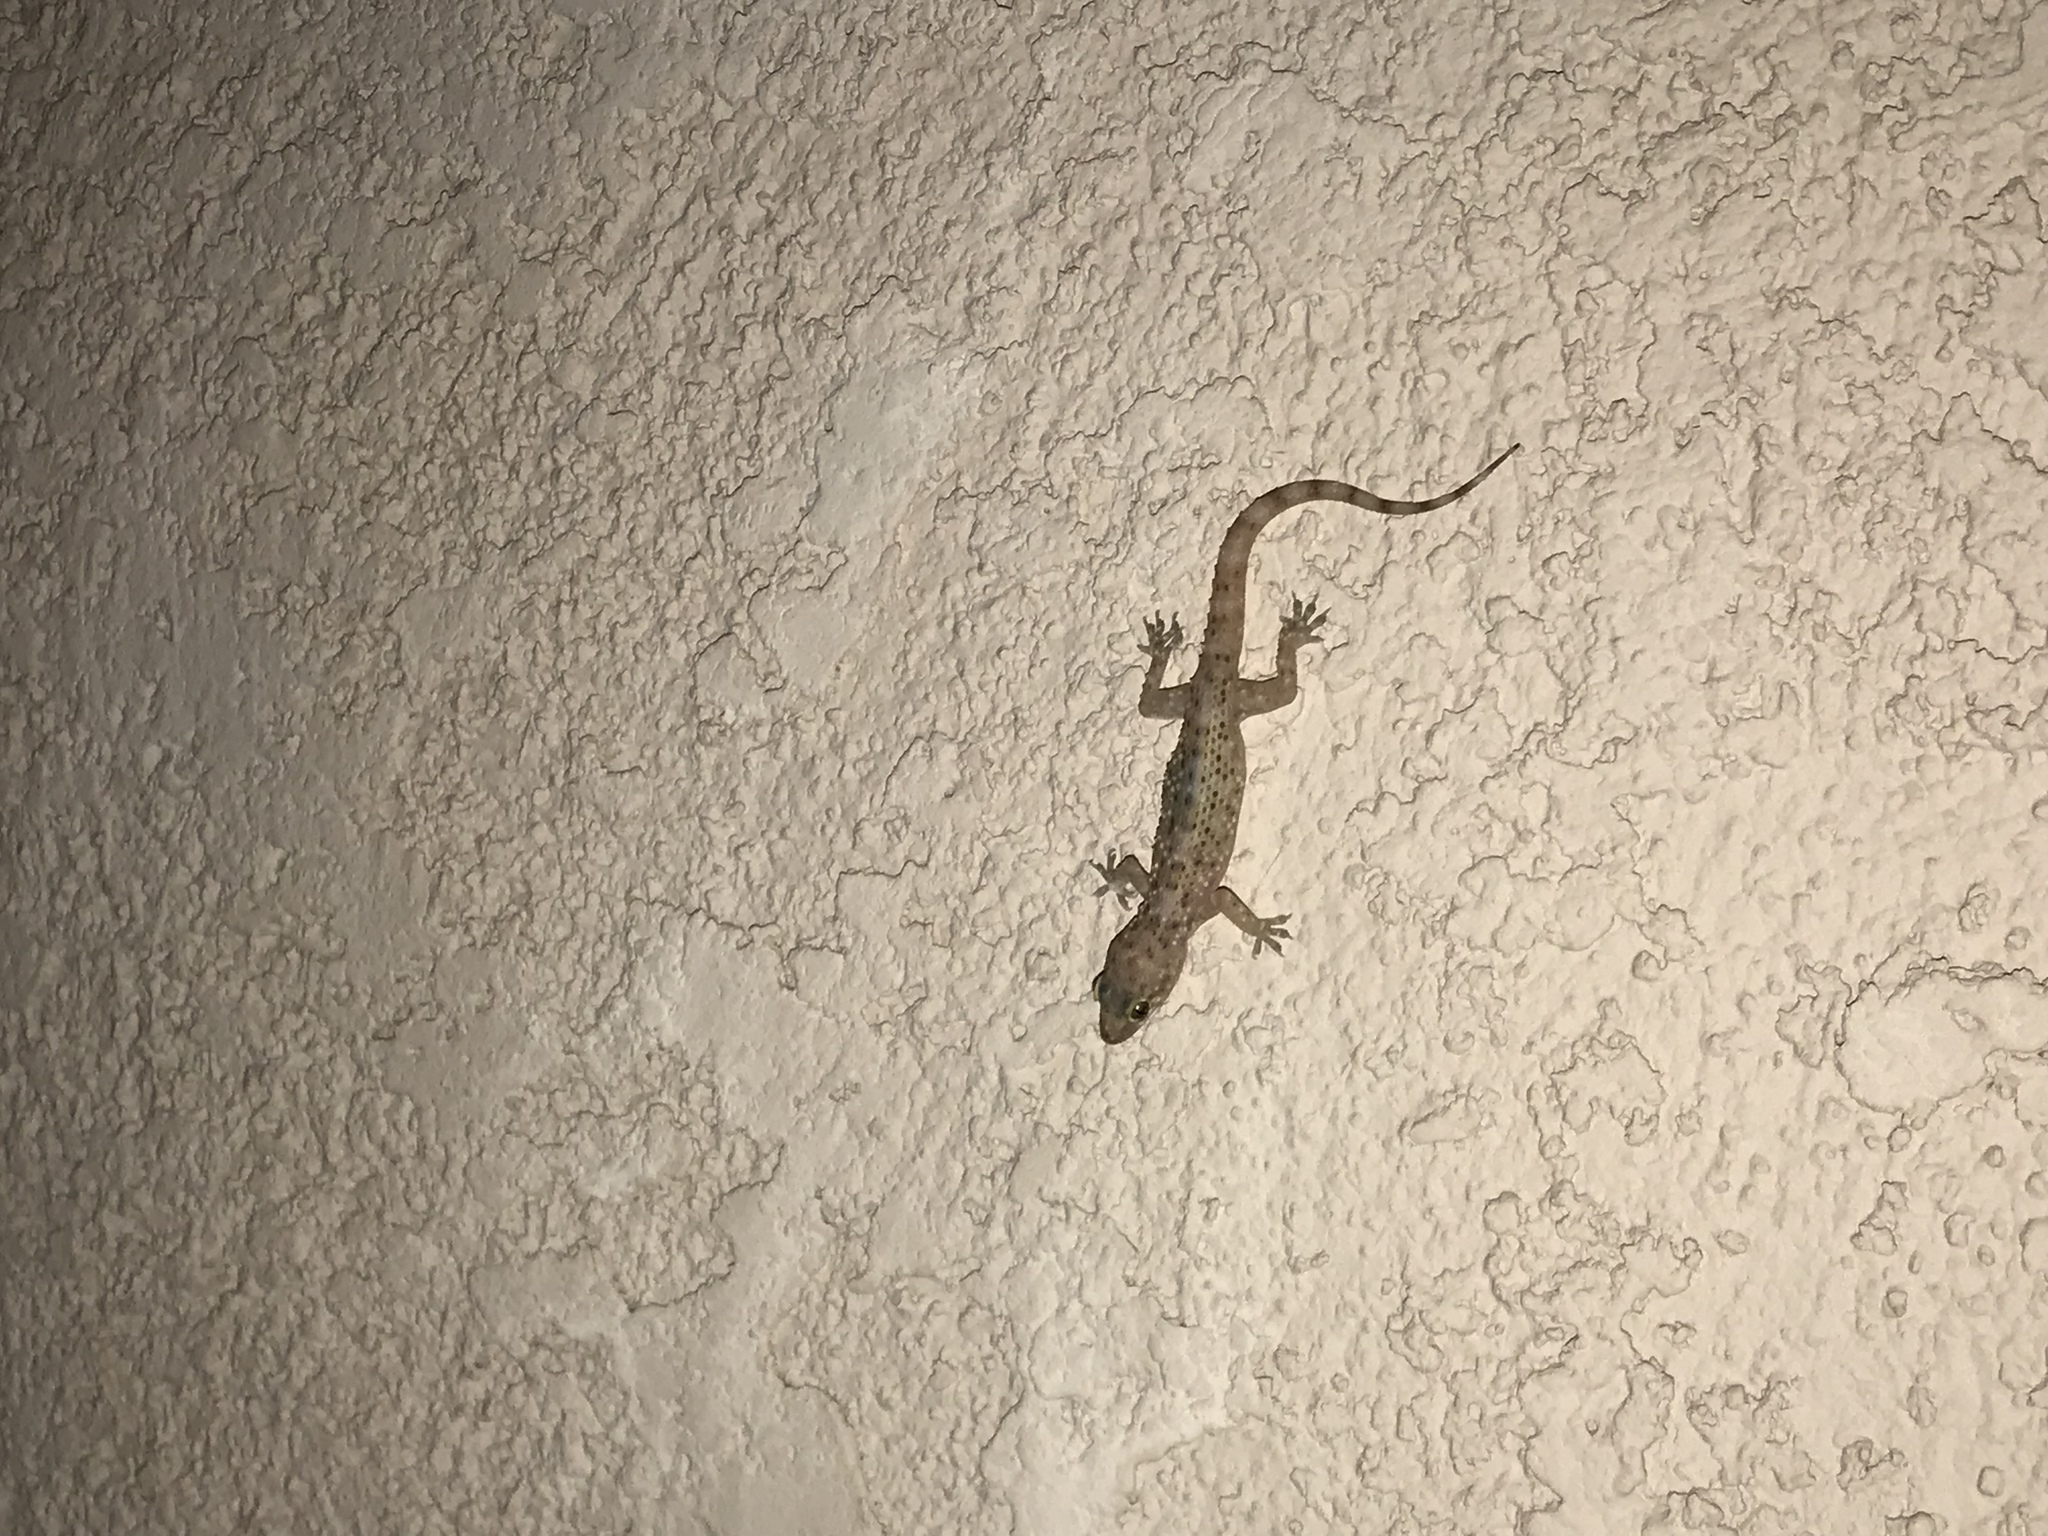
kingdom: Animalia
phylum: Chordata
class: Squamata
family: Gekkonidae
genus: Hemidactylus
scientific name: Hemidactylus turcicus
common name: Turkish gecko
